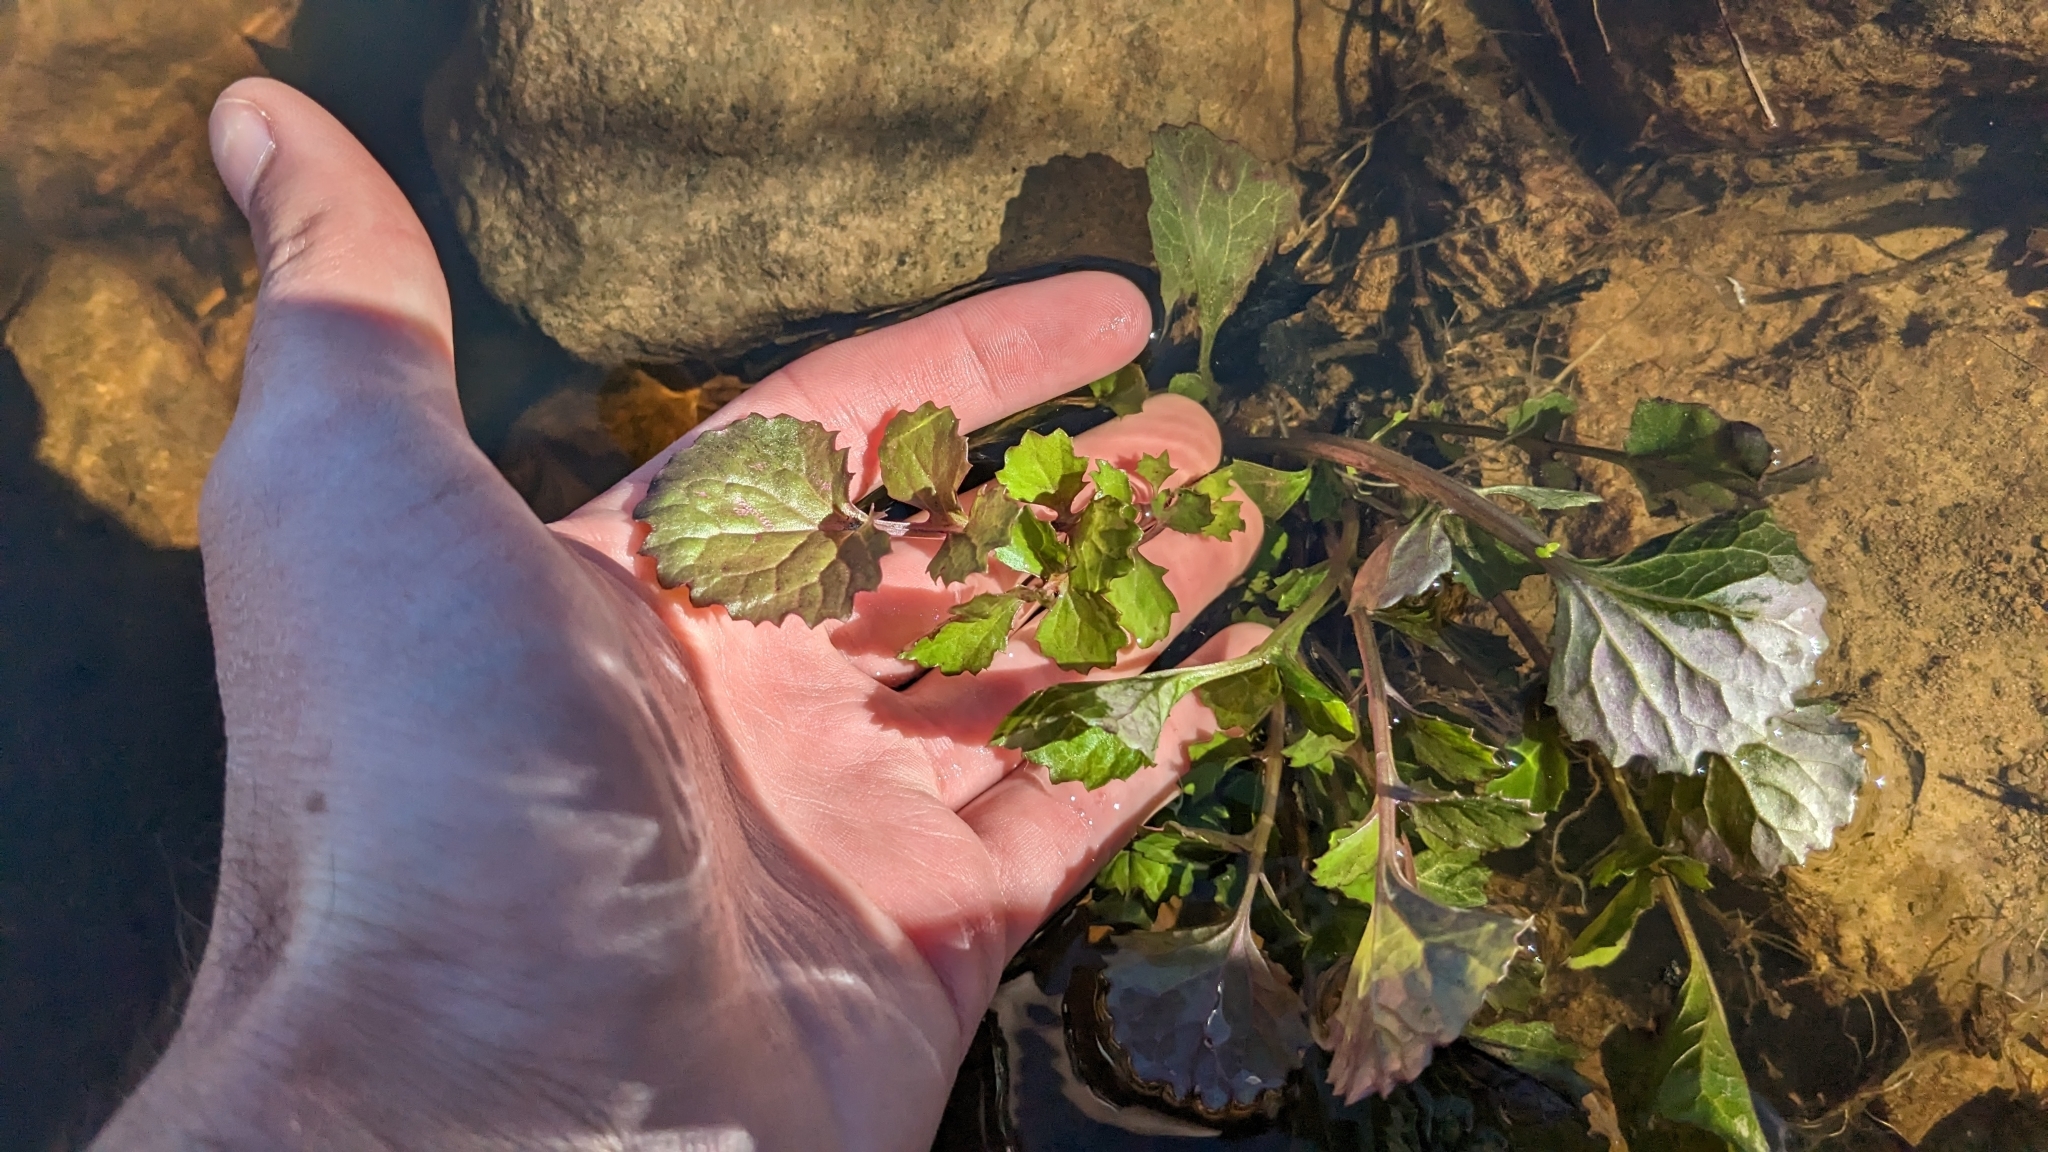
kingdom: Plantae
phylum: Tracheophyta
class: Magnoliopsida
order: Asterales
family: Asteraceae
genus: Packera
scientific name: Packera glabella
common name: Butterweed
